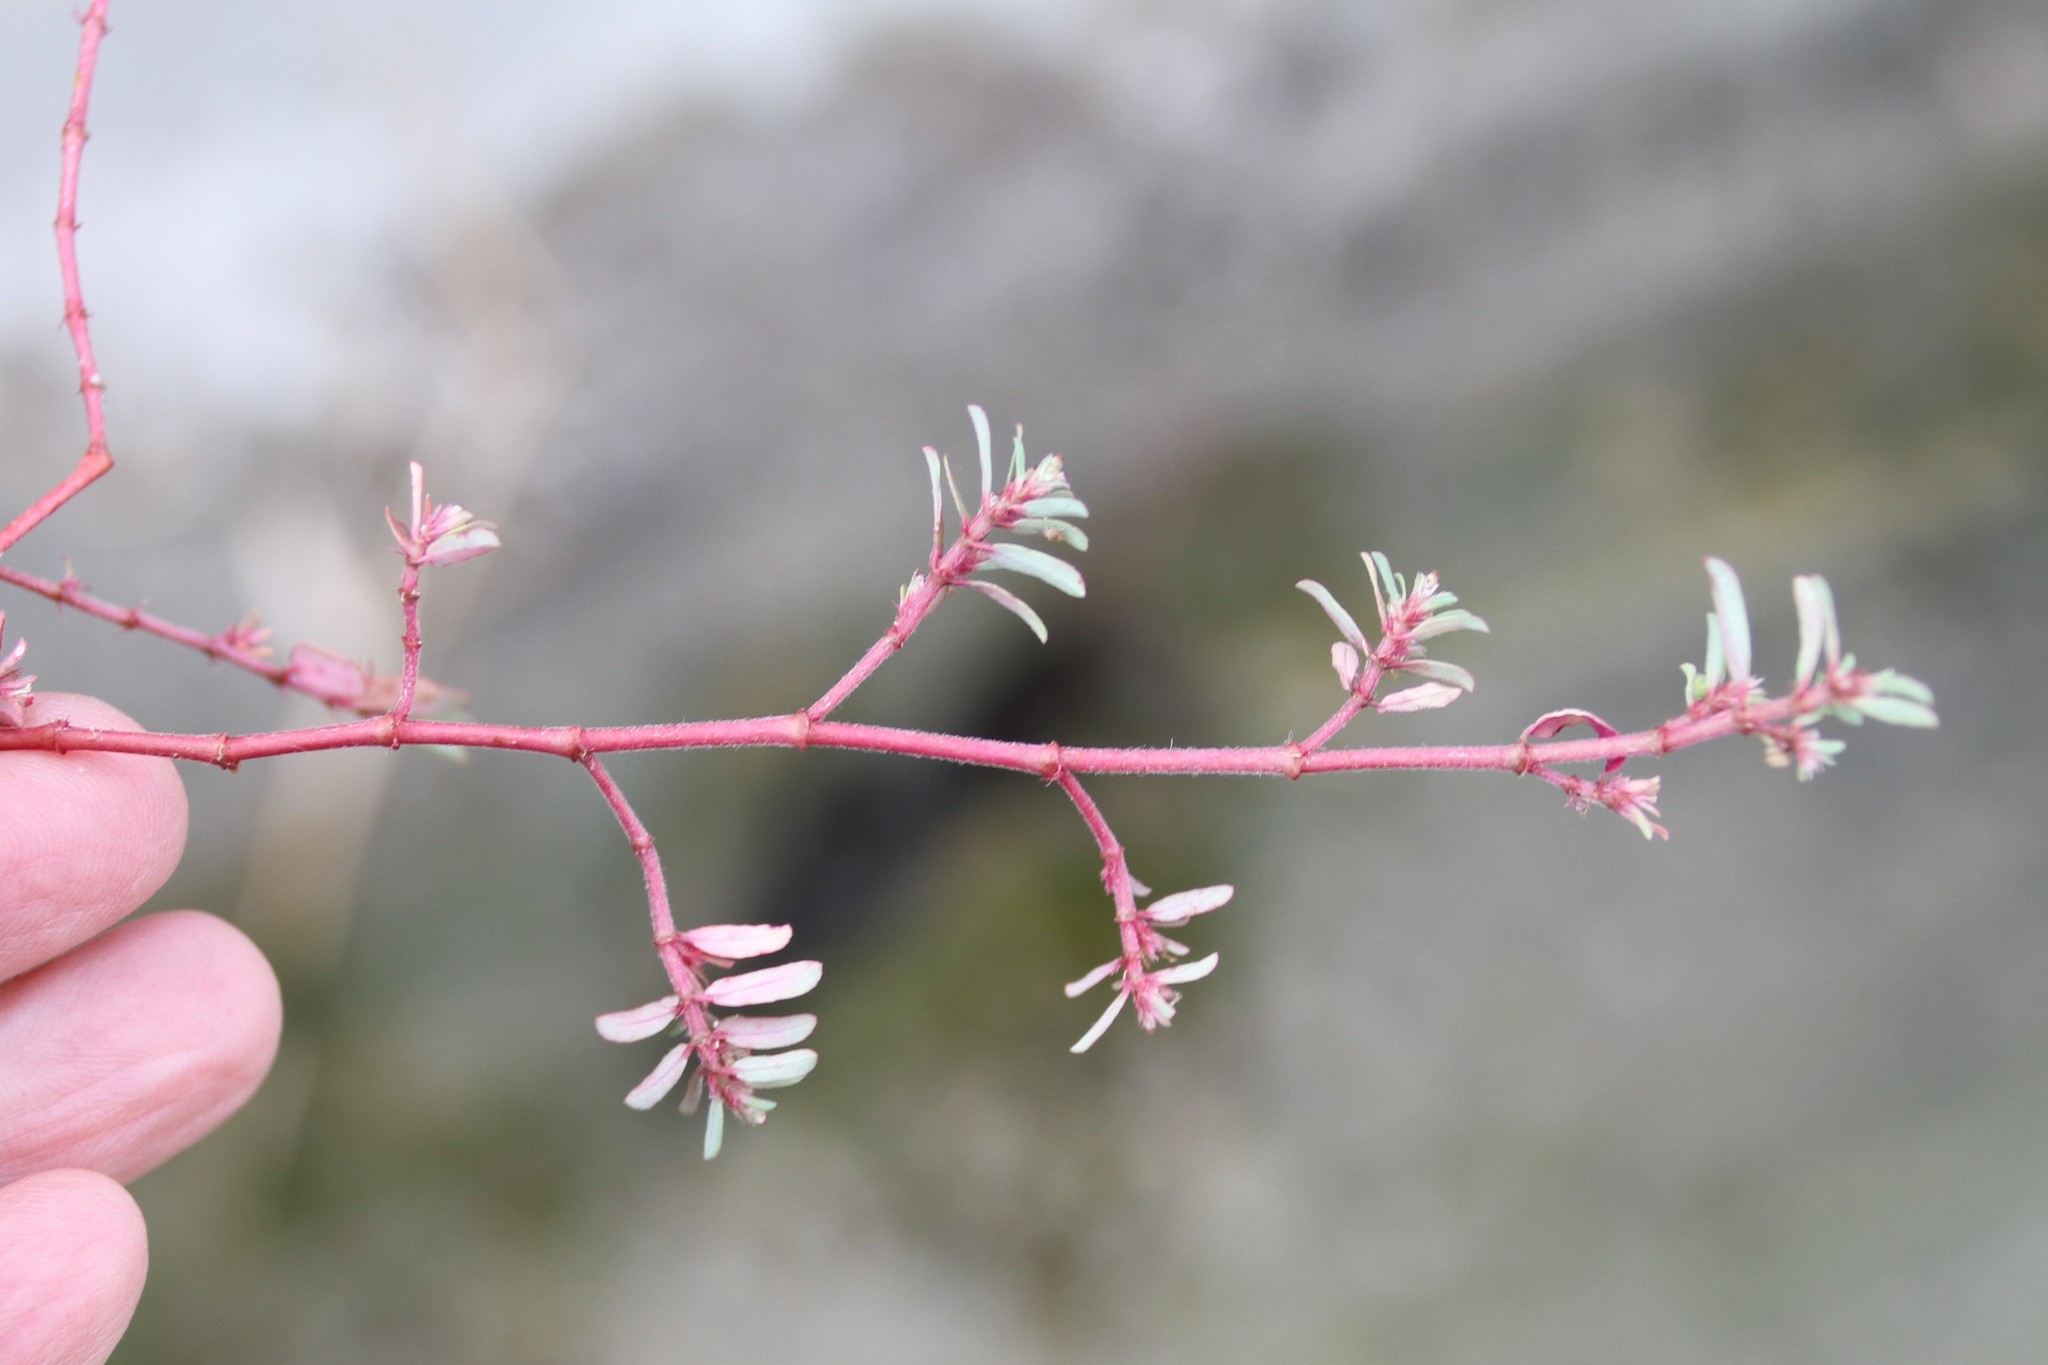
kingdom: Plantae
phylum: Tracheophyta
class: Magnoliopsida
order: Malpighiales
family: Euphorbiaceae
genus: Euphorbia
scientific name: Euphorbia maculata
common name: Spotted spurge
